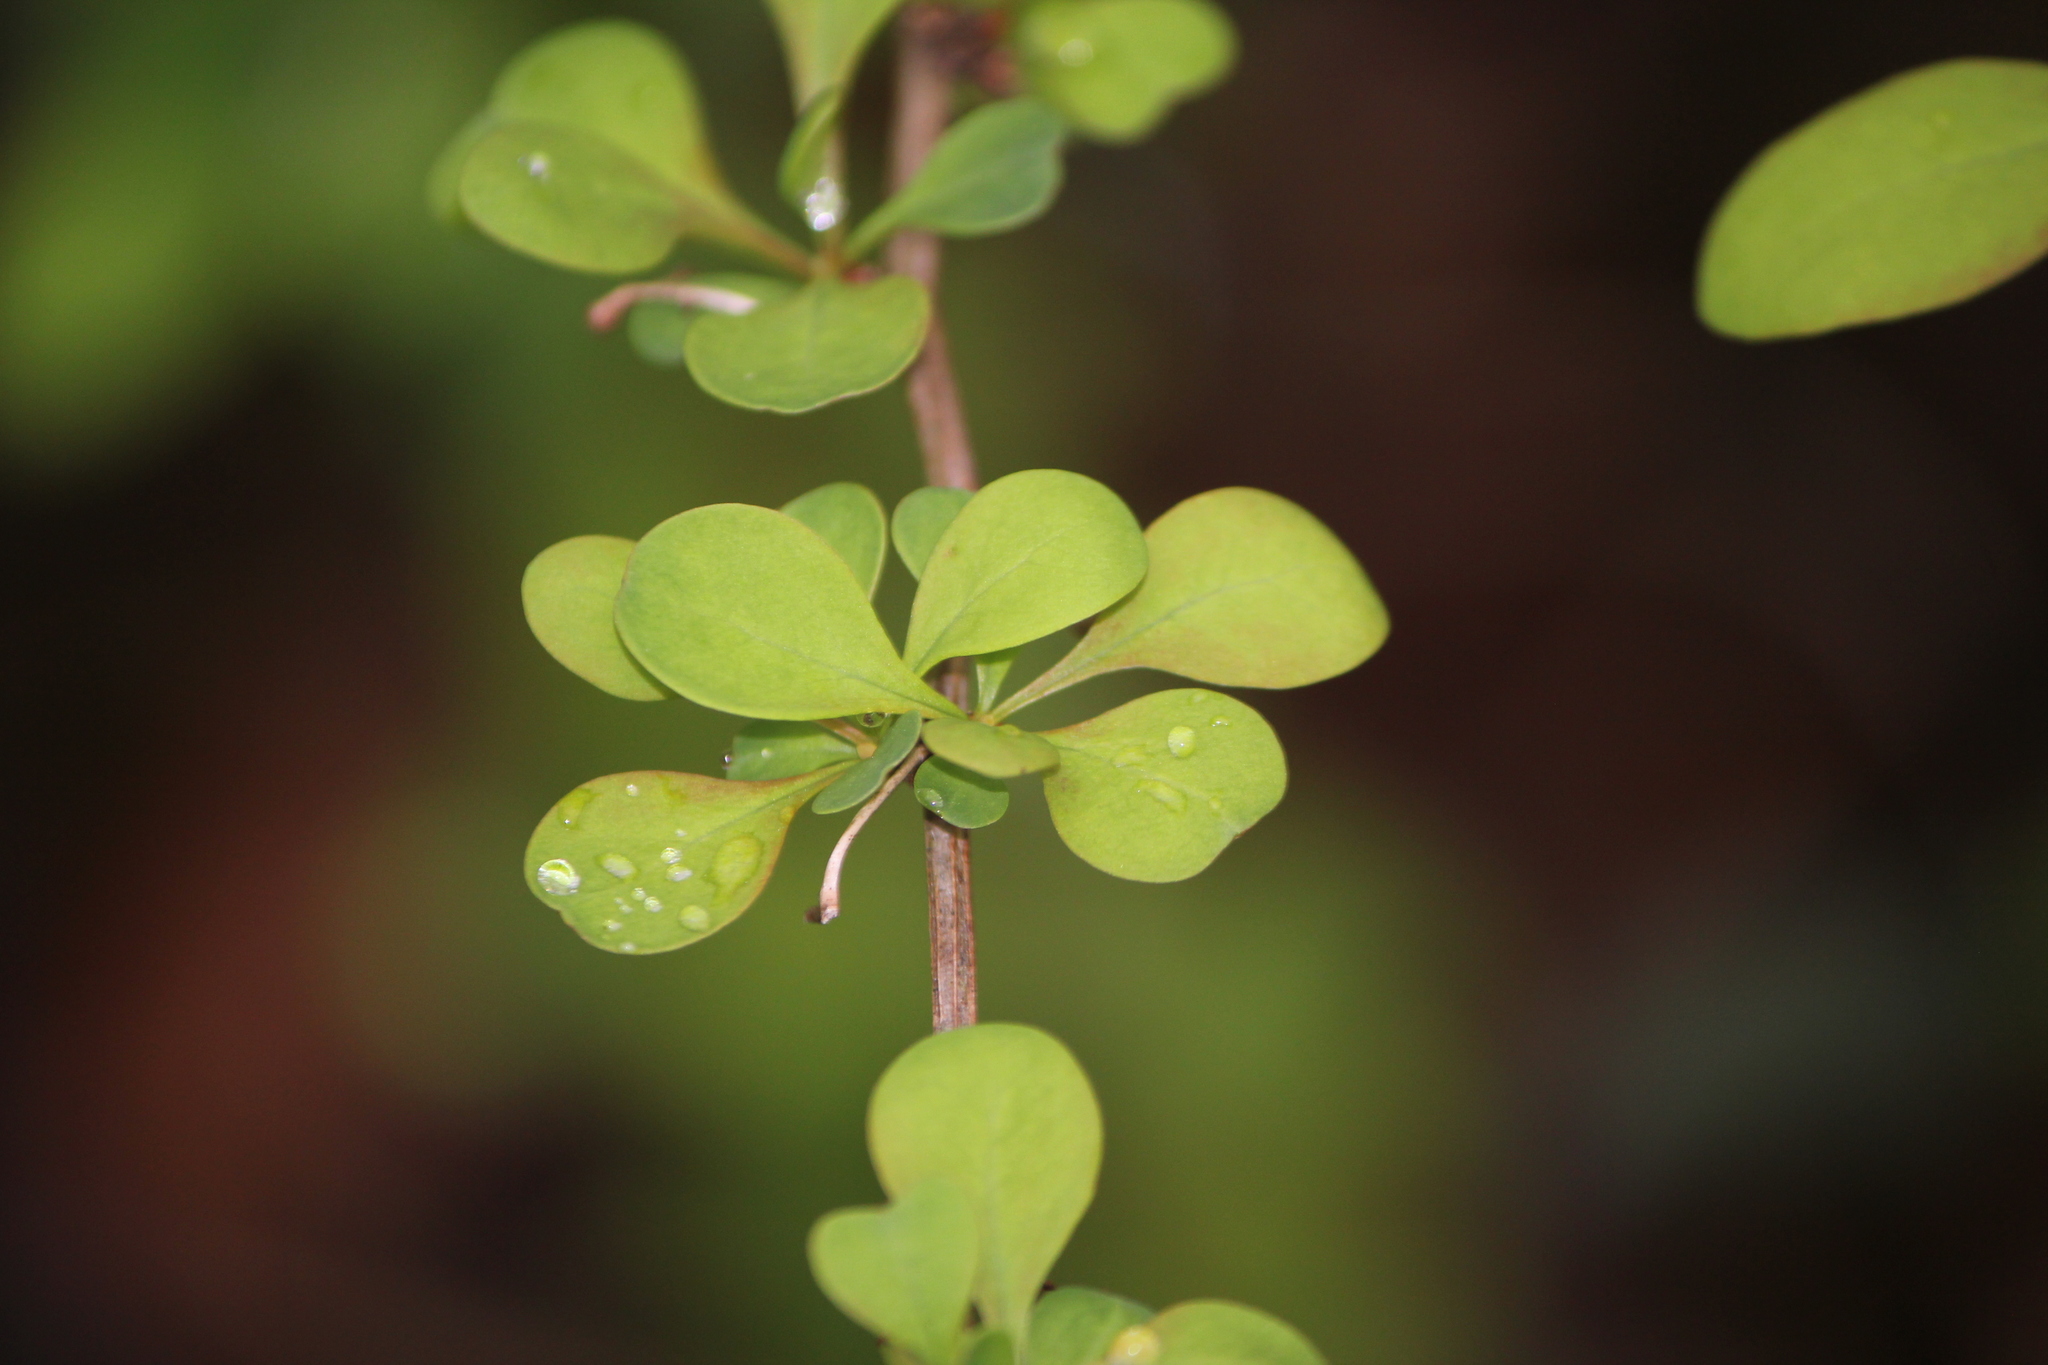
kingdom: Plantae
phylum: Tracheophyta
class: Magnoliopsida
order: Ranunculales
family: Berberidaceae
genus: Berberis
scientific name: Berberis thunbergii
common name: Japanese barberry
